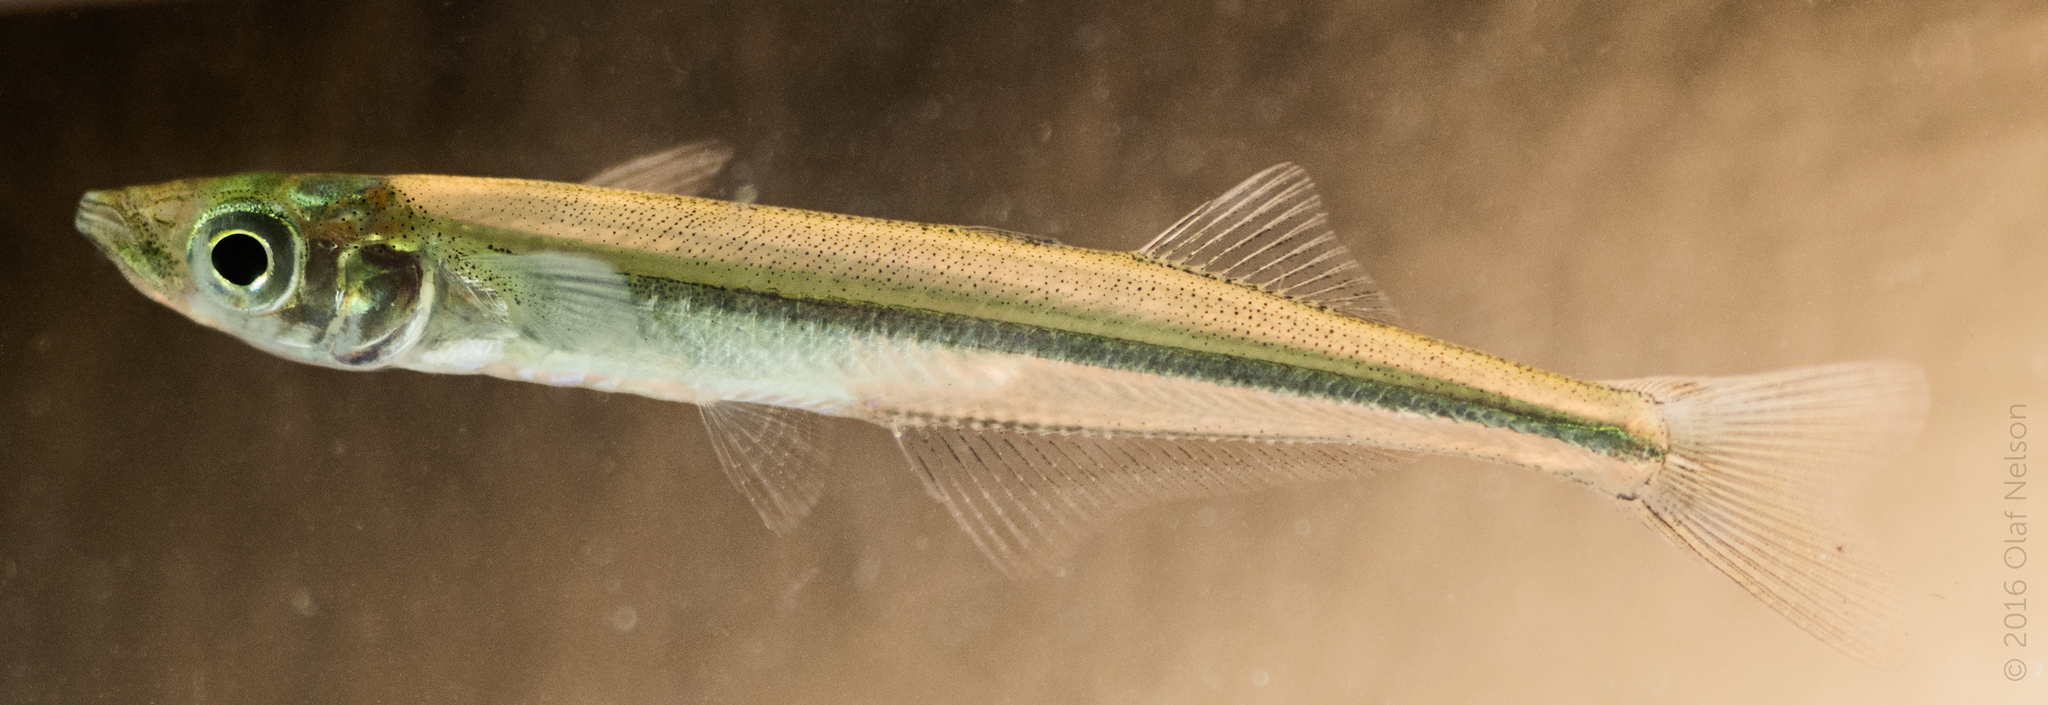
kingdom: Animalia
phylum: Chordata
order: Atheriniformes
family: Atherinopsidae
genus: Labidesthes
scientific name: Labidesthes sicculus
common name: Brook silverside
